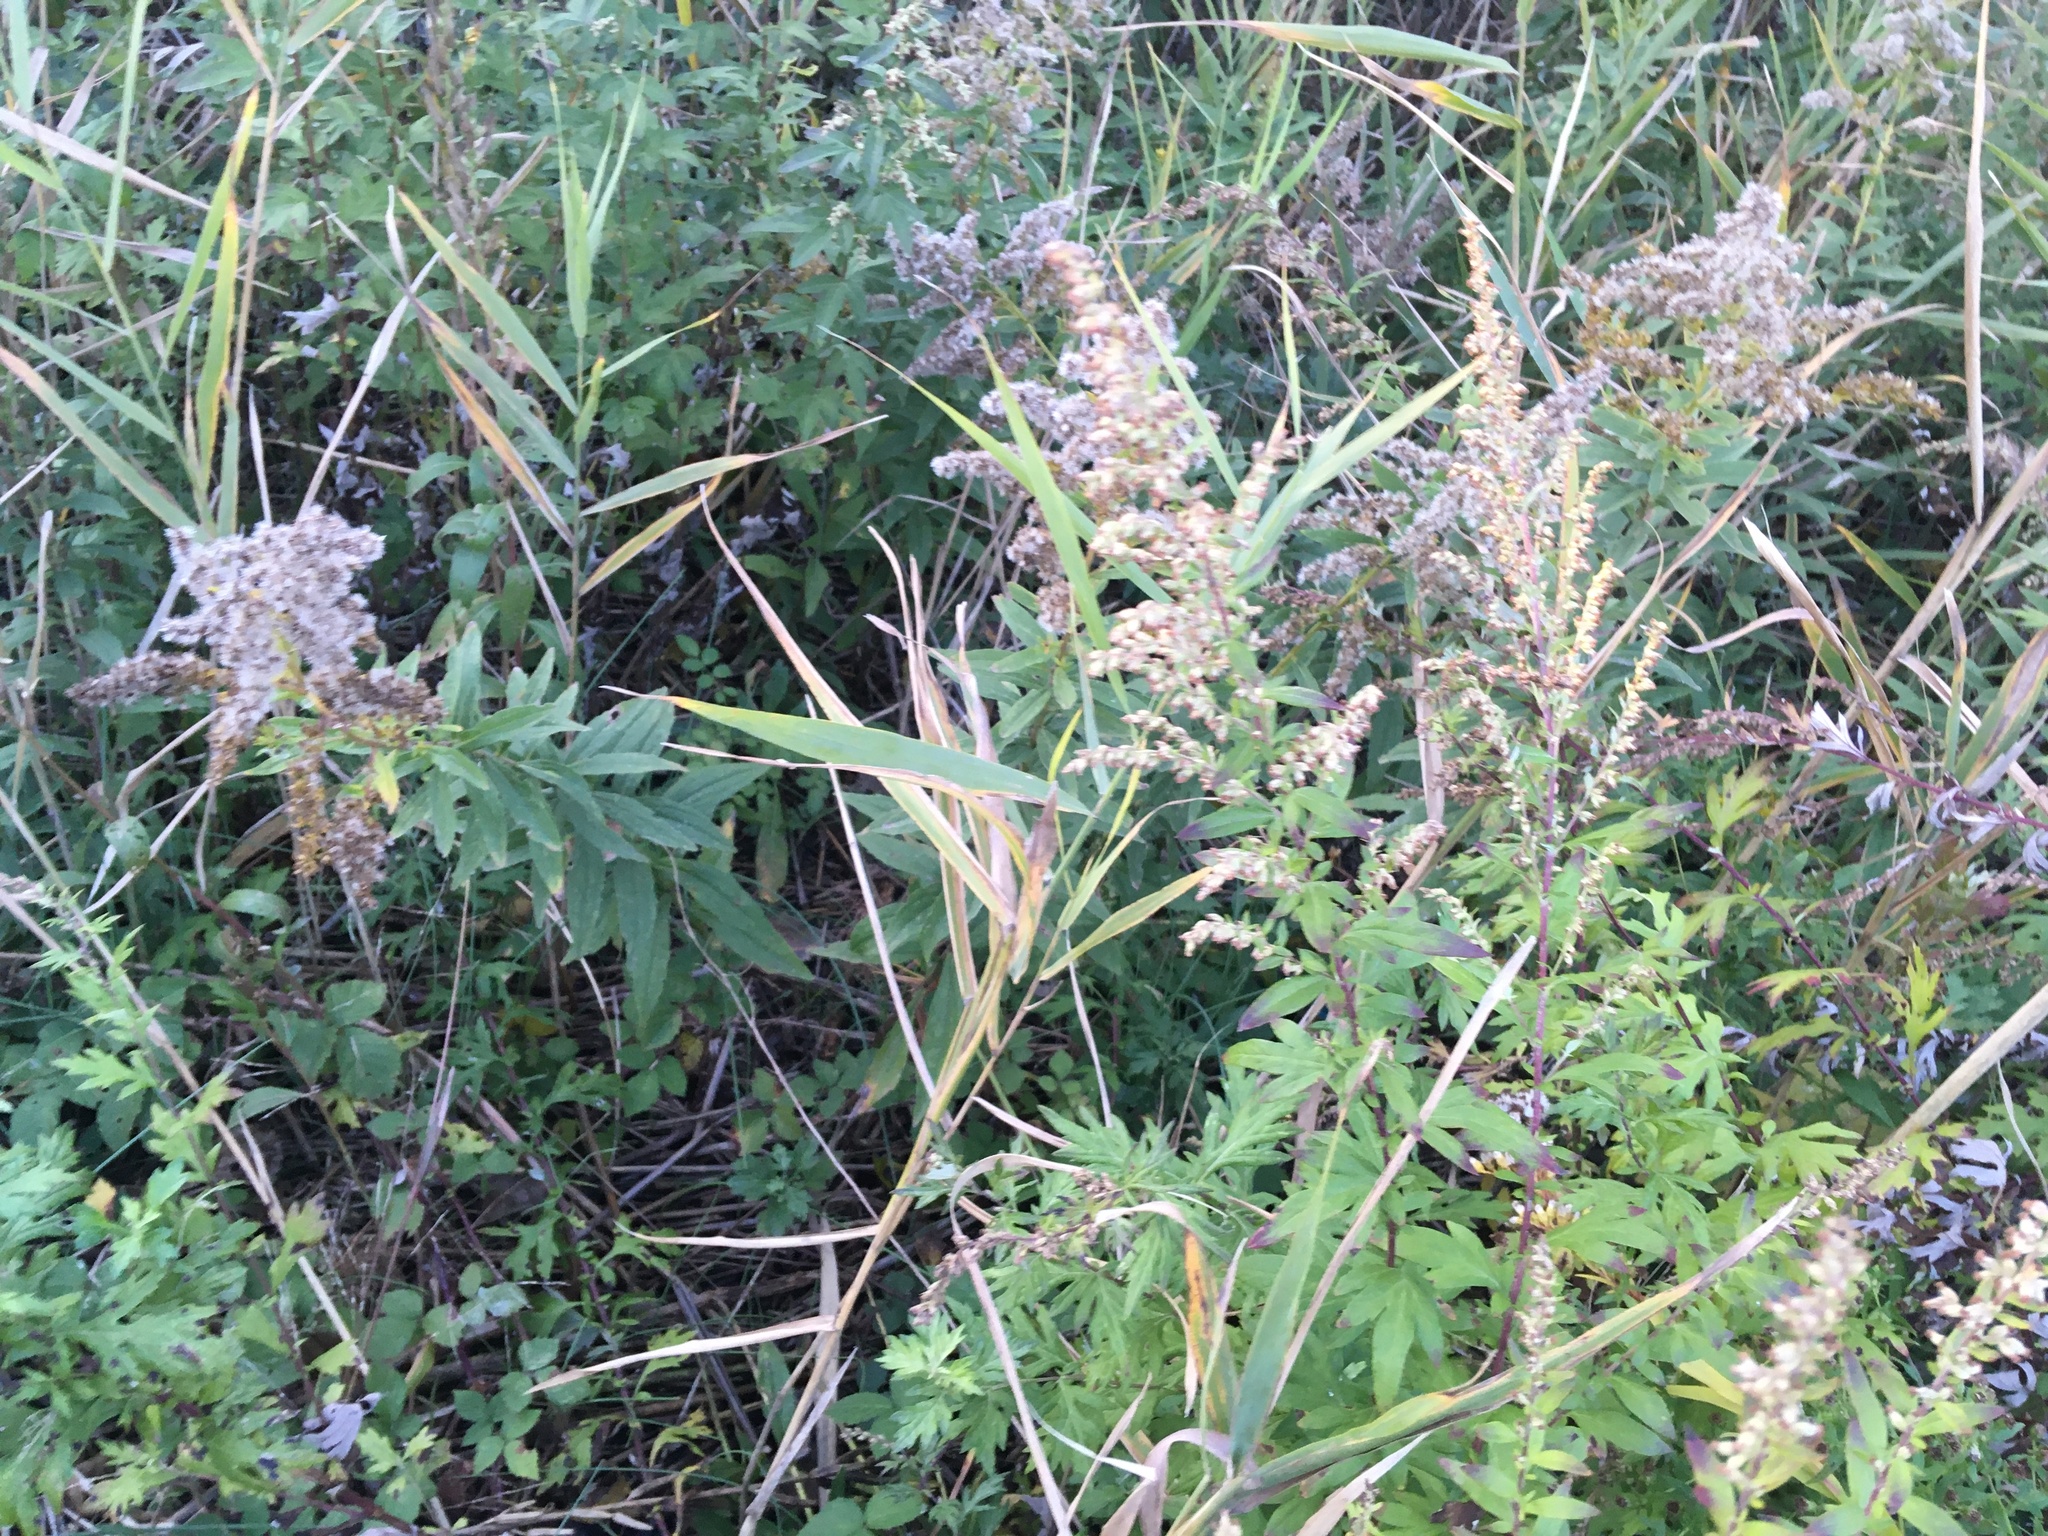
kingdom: Plantae
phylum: Tracheophyta
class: Magnoliopsida
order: Asterales
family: Asteraceae
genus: Artemisia
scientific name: Artemisia vulgaris
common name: Mugwort
